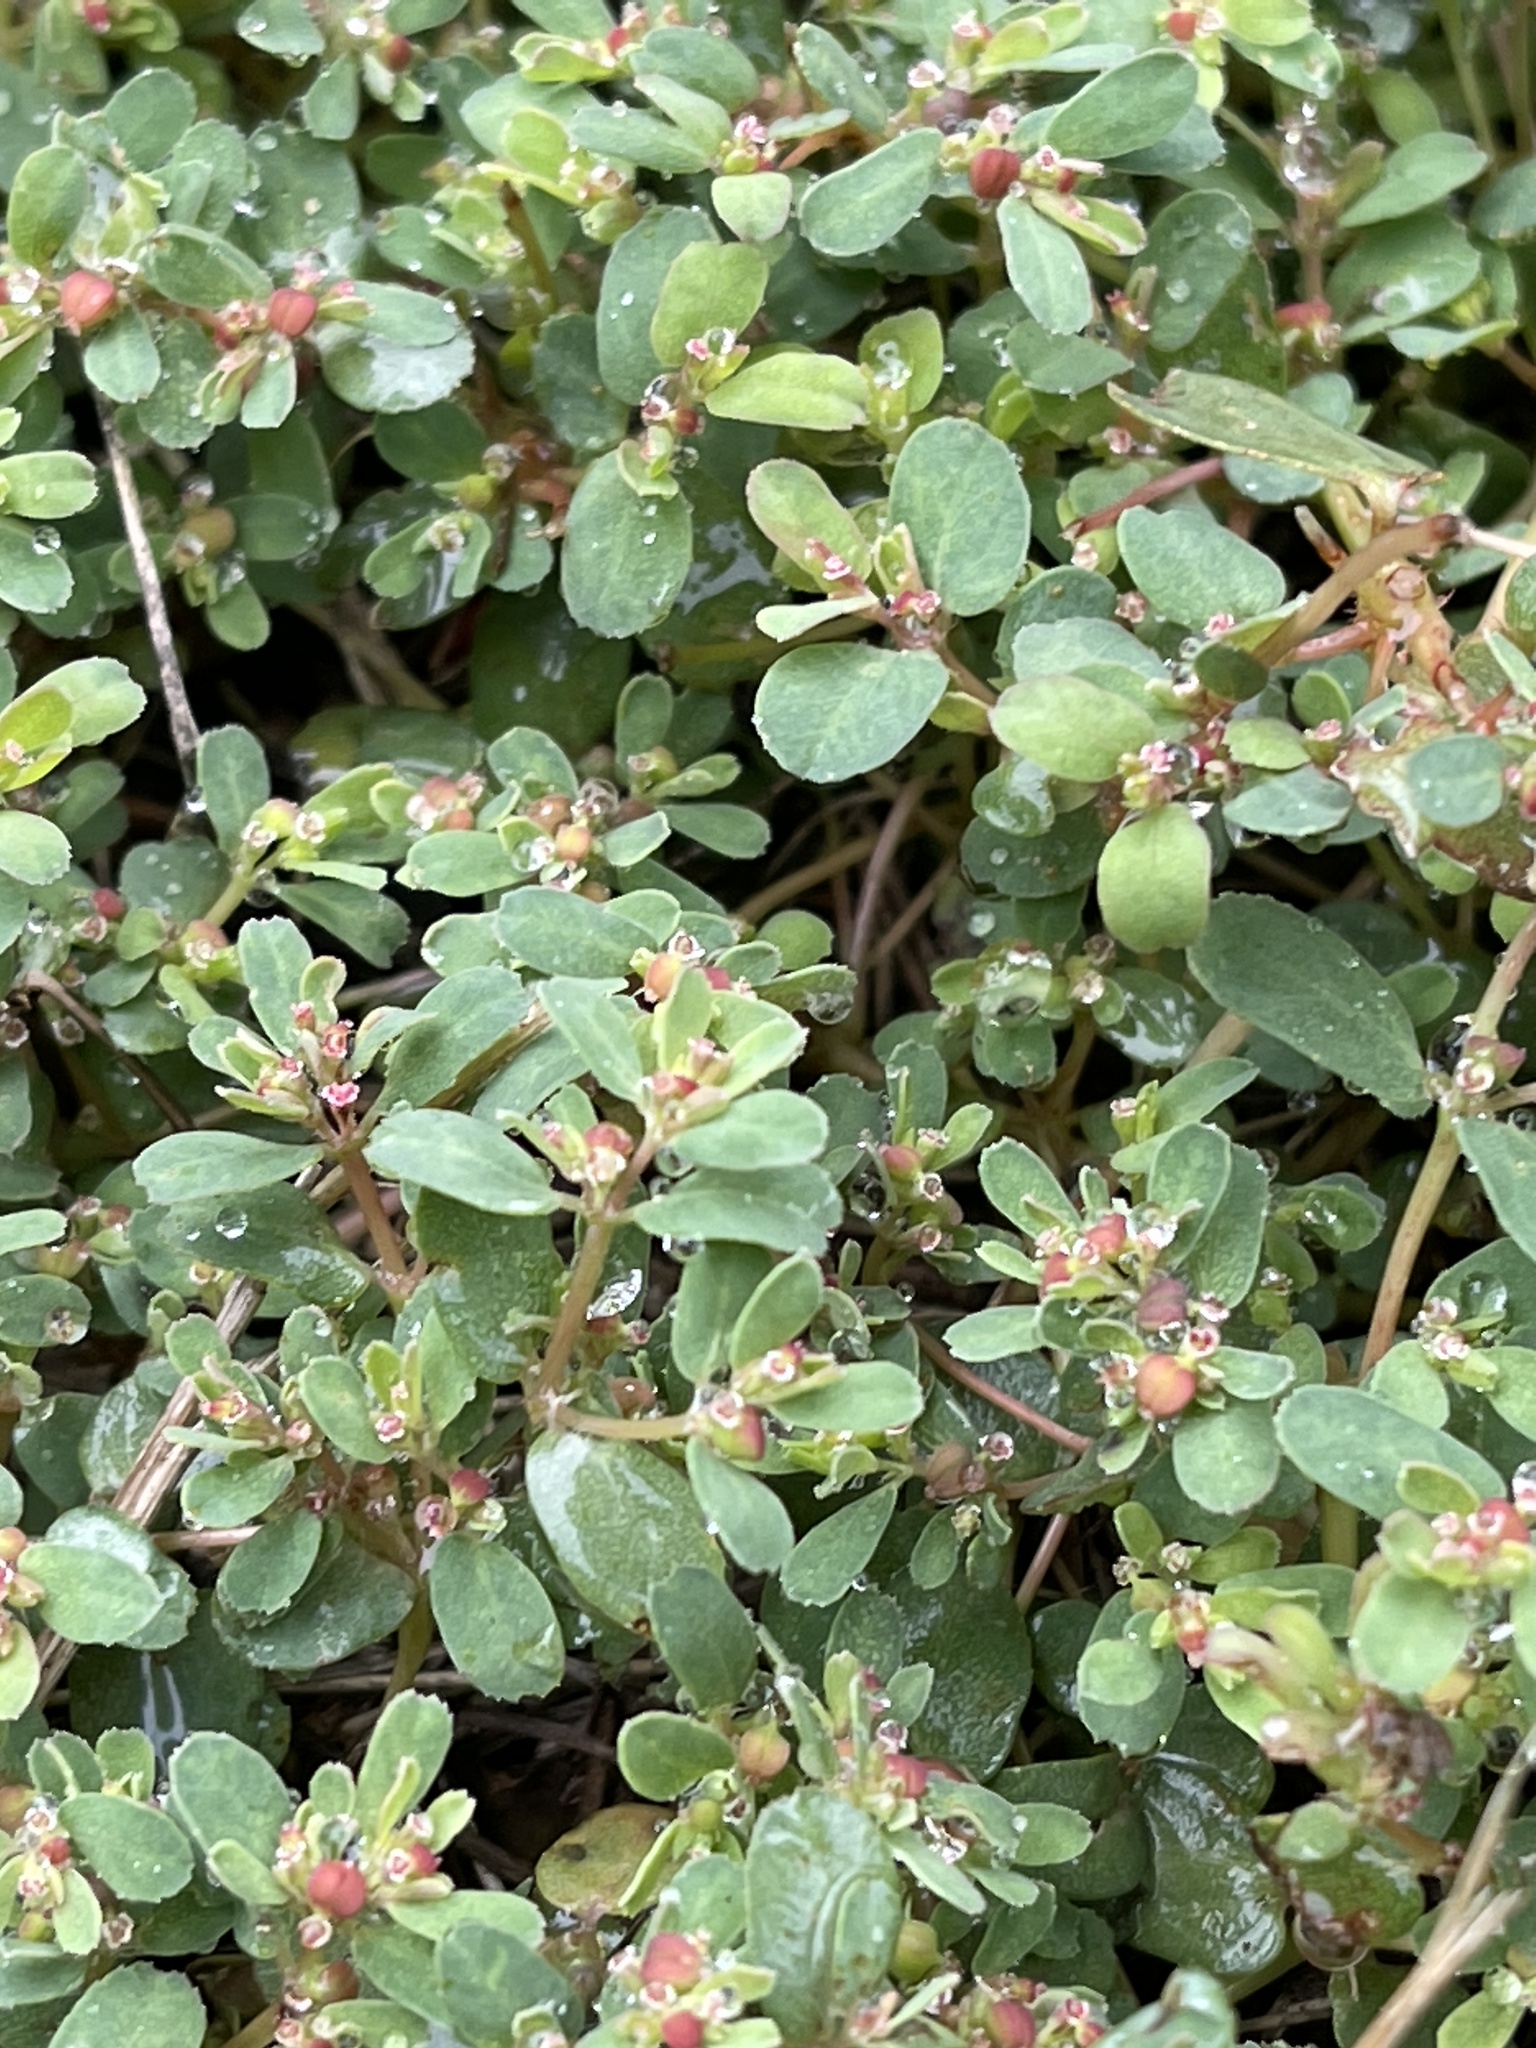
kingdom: Plantae
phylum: Tracheophyta
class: Magnoliopsida
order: Malpighiales
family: Euphorbiaceae
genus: Euphorbia
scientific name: Euphorbia serpillifolia
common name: Thyme-leaf spurge
